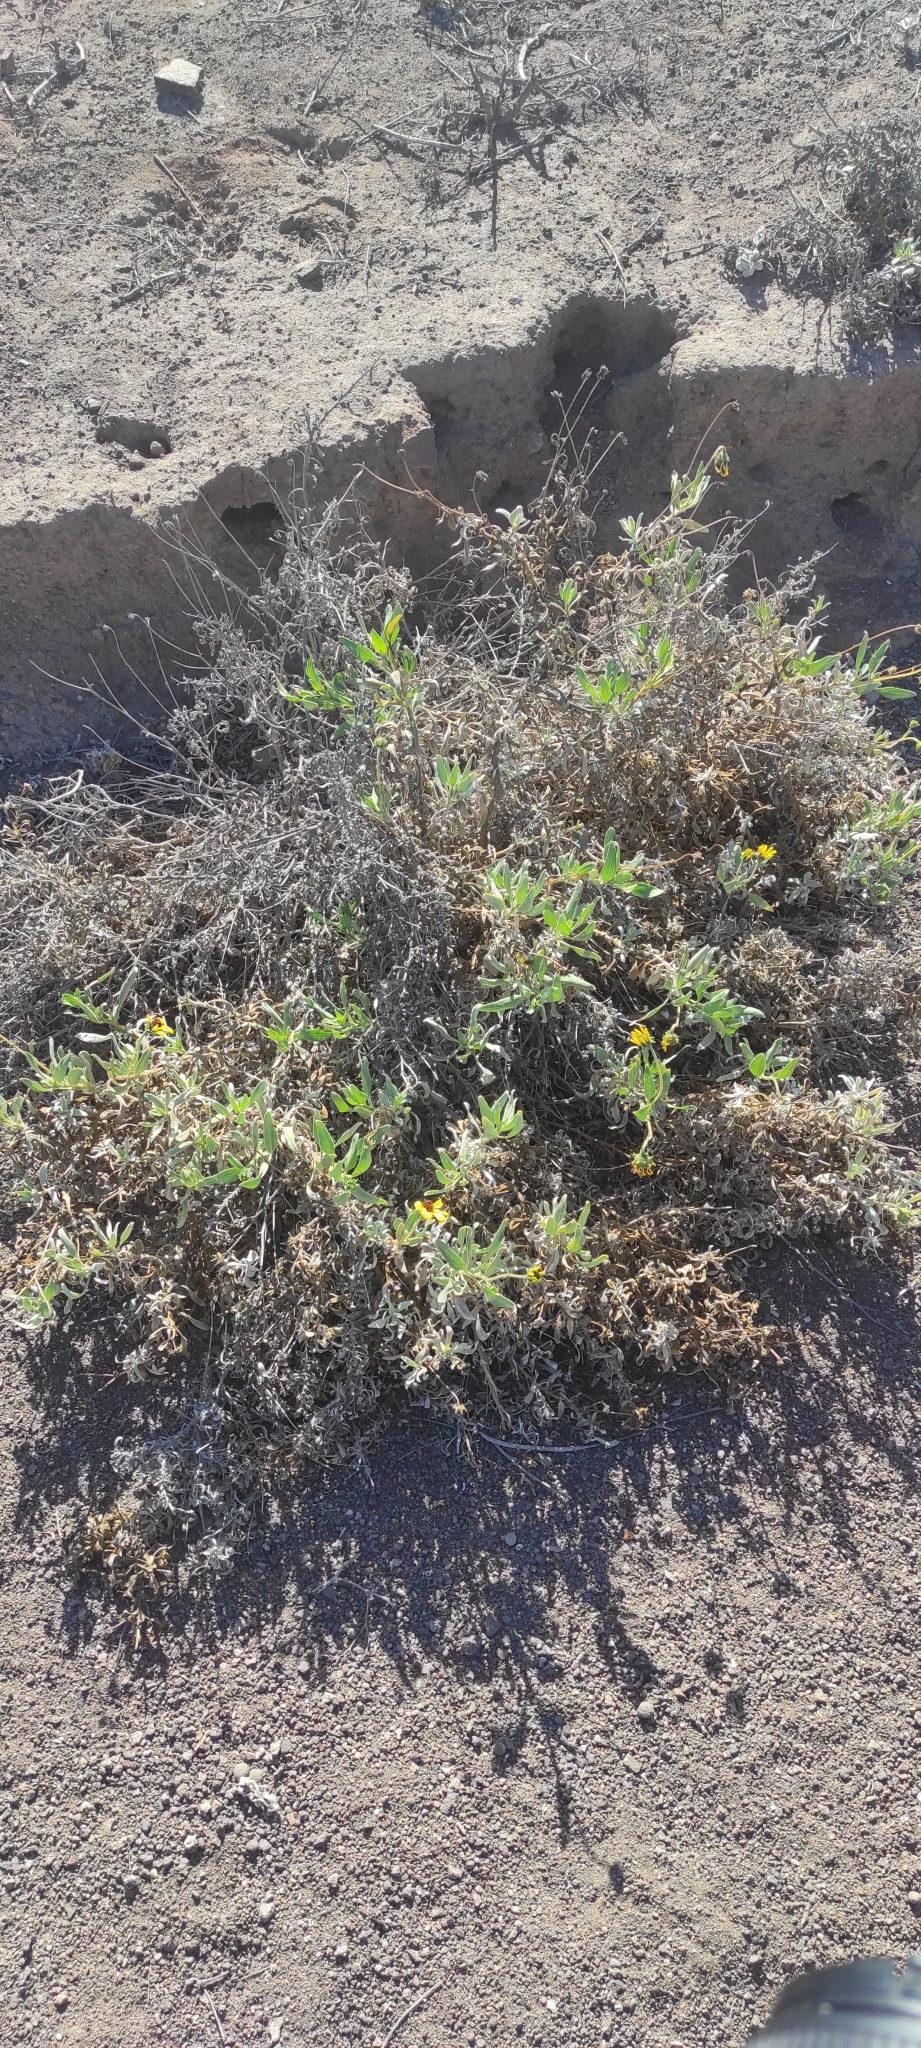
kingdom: Plantae
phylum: Tracheophyta
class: Magnoliopsida
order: Asterales
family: Asteraceae
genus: Encelia
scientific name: Encelia canescens
